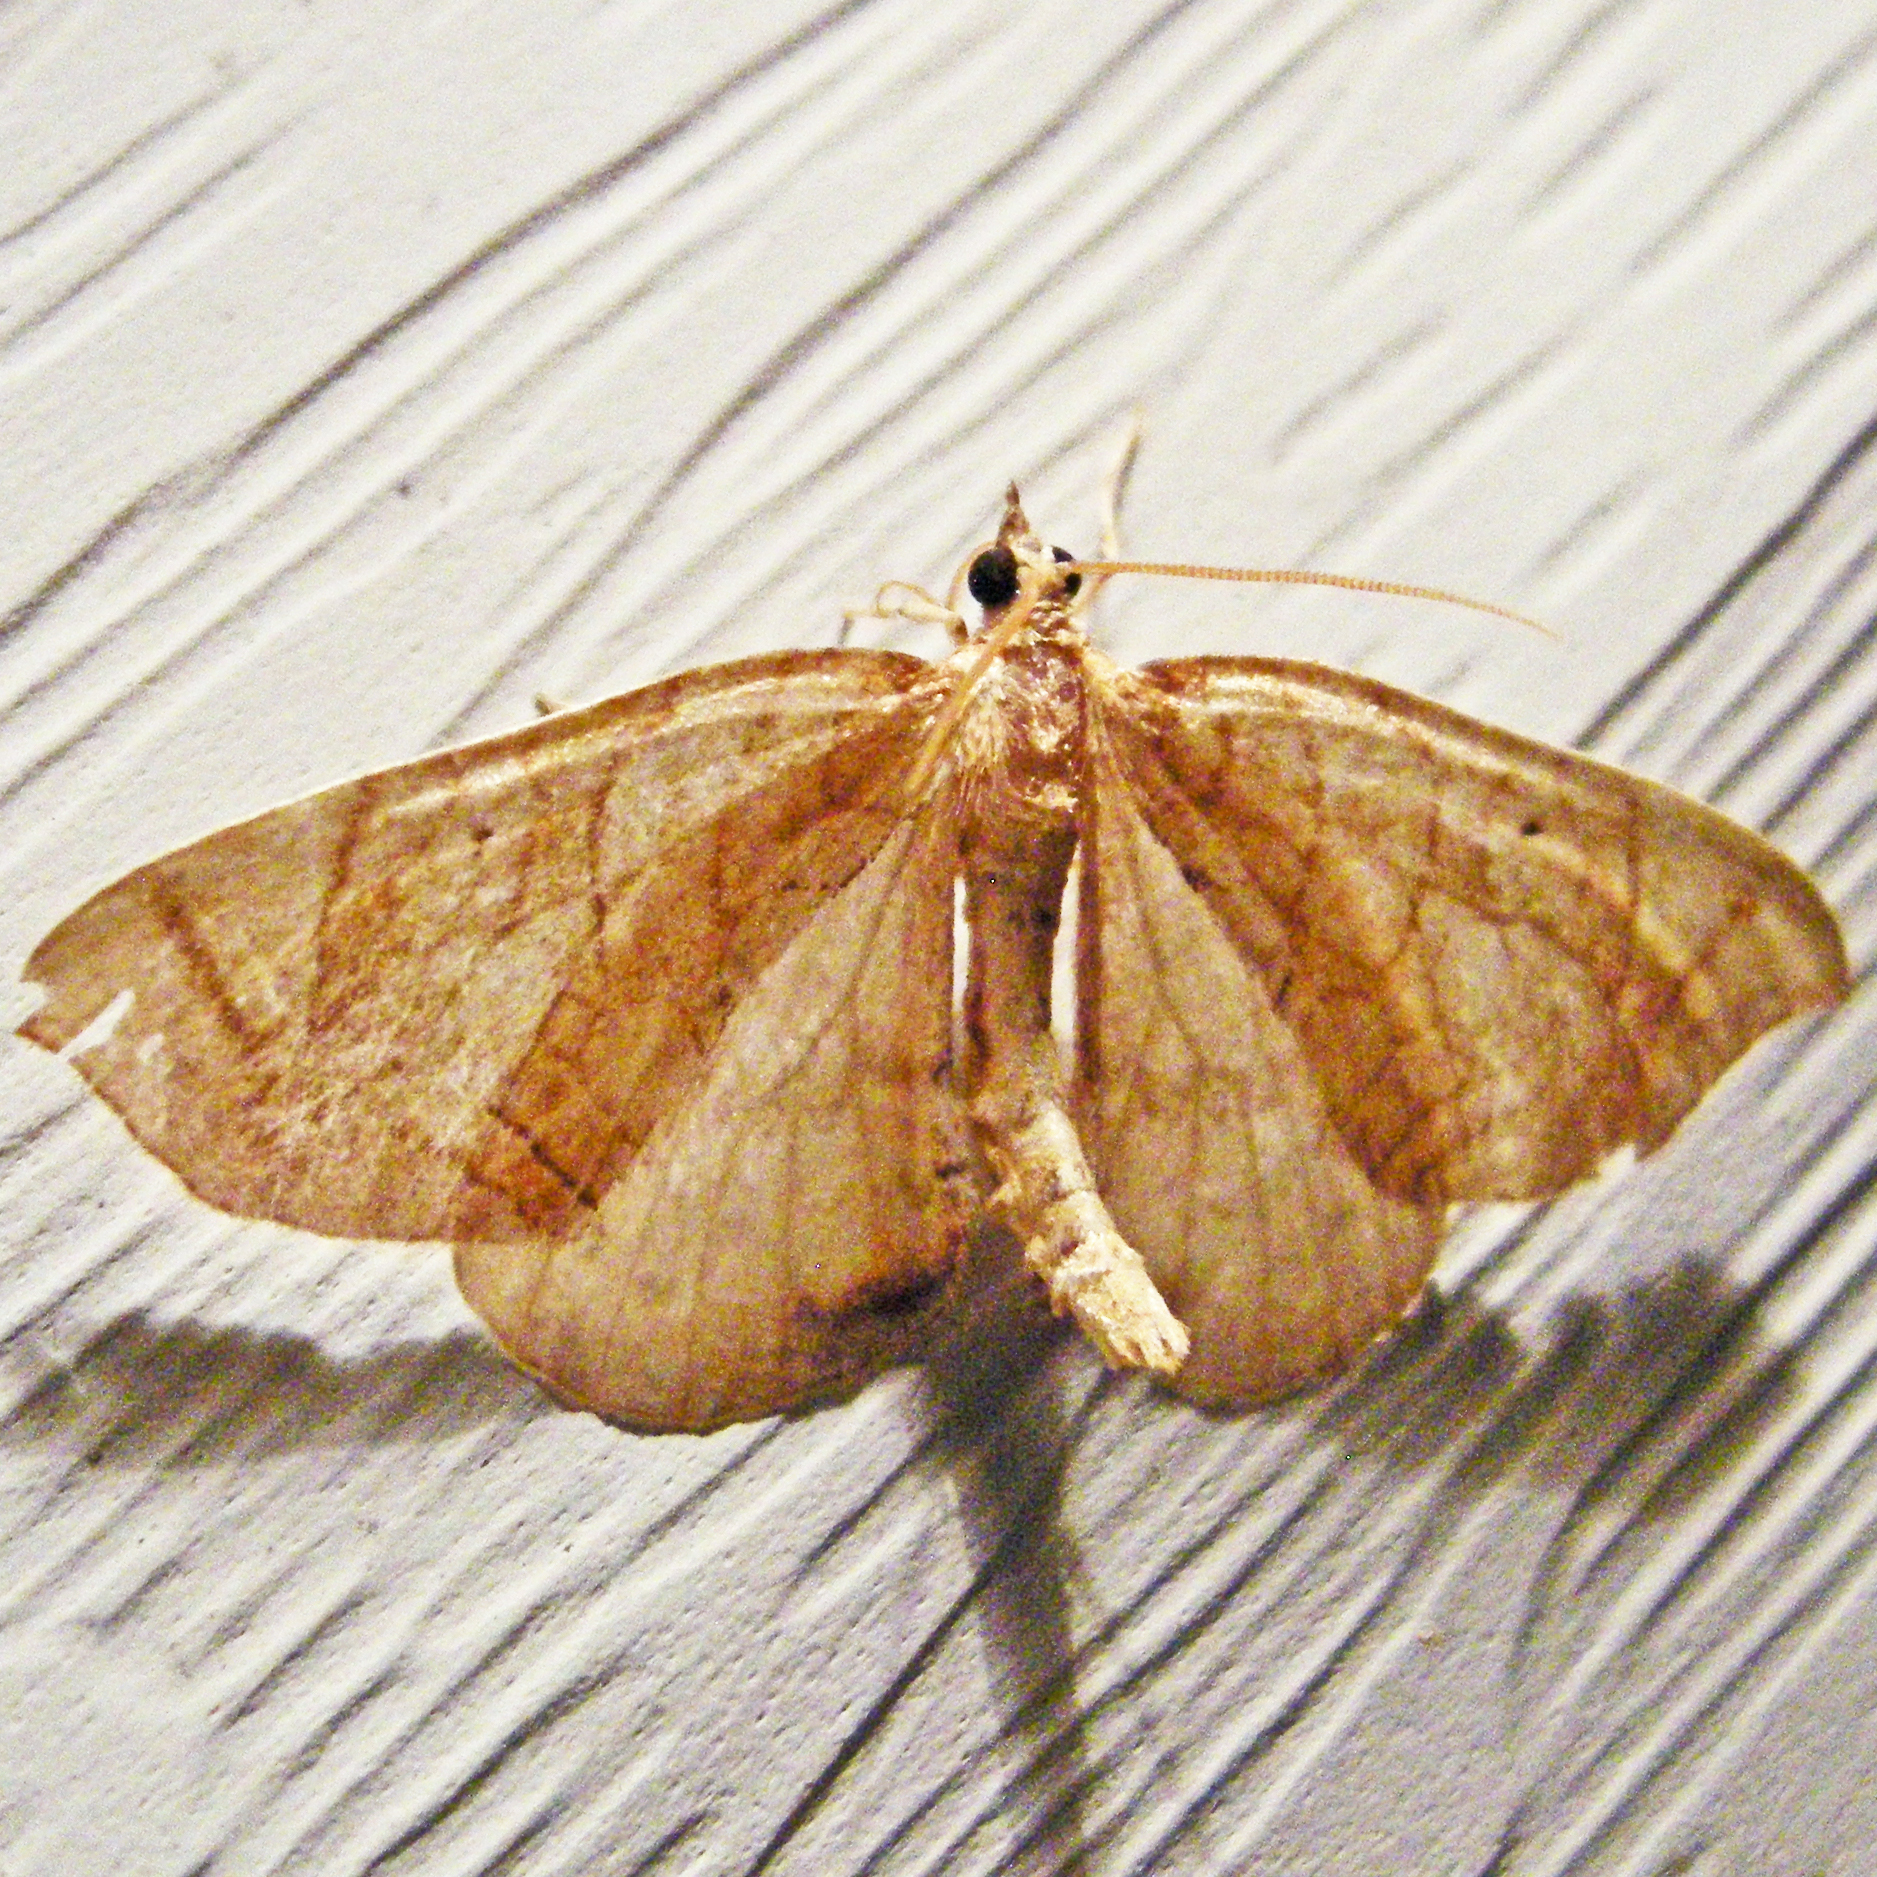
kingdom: Animalia
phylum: Arthropoda
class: Insecta
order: Lepidoptera
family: Geometridae
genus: Eulithis
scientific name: Eulithis
